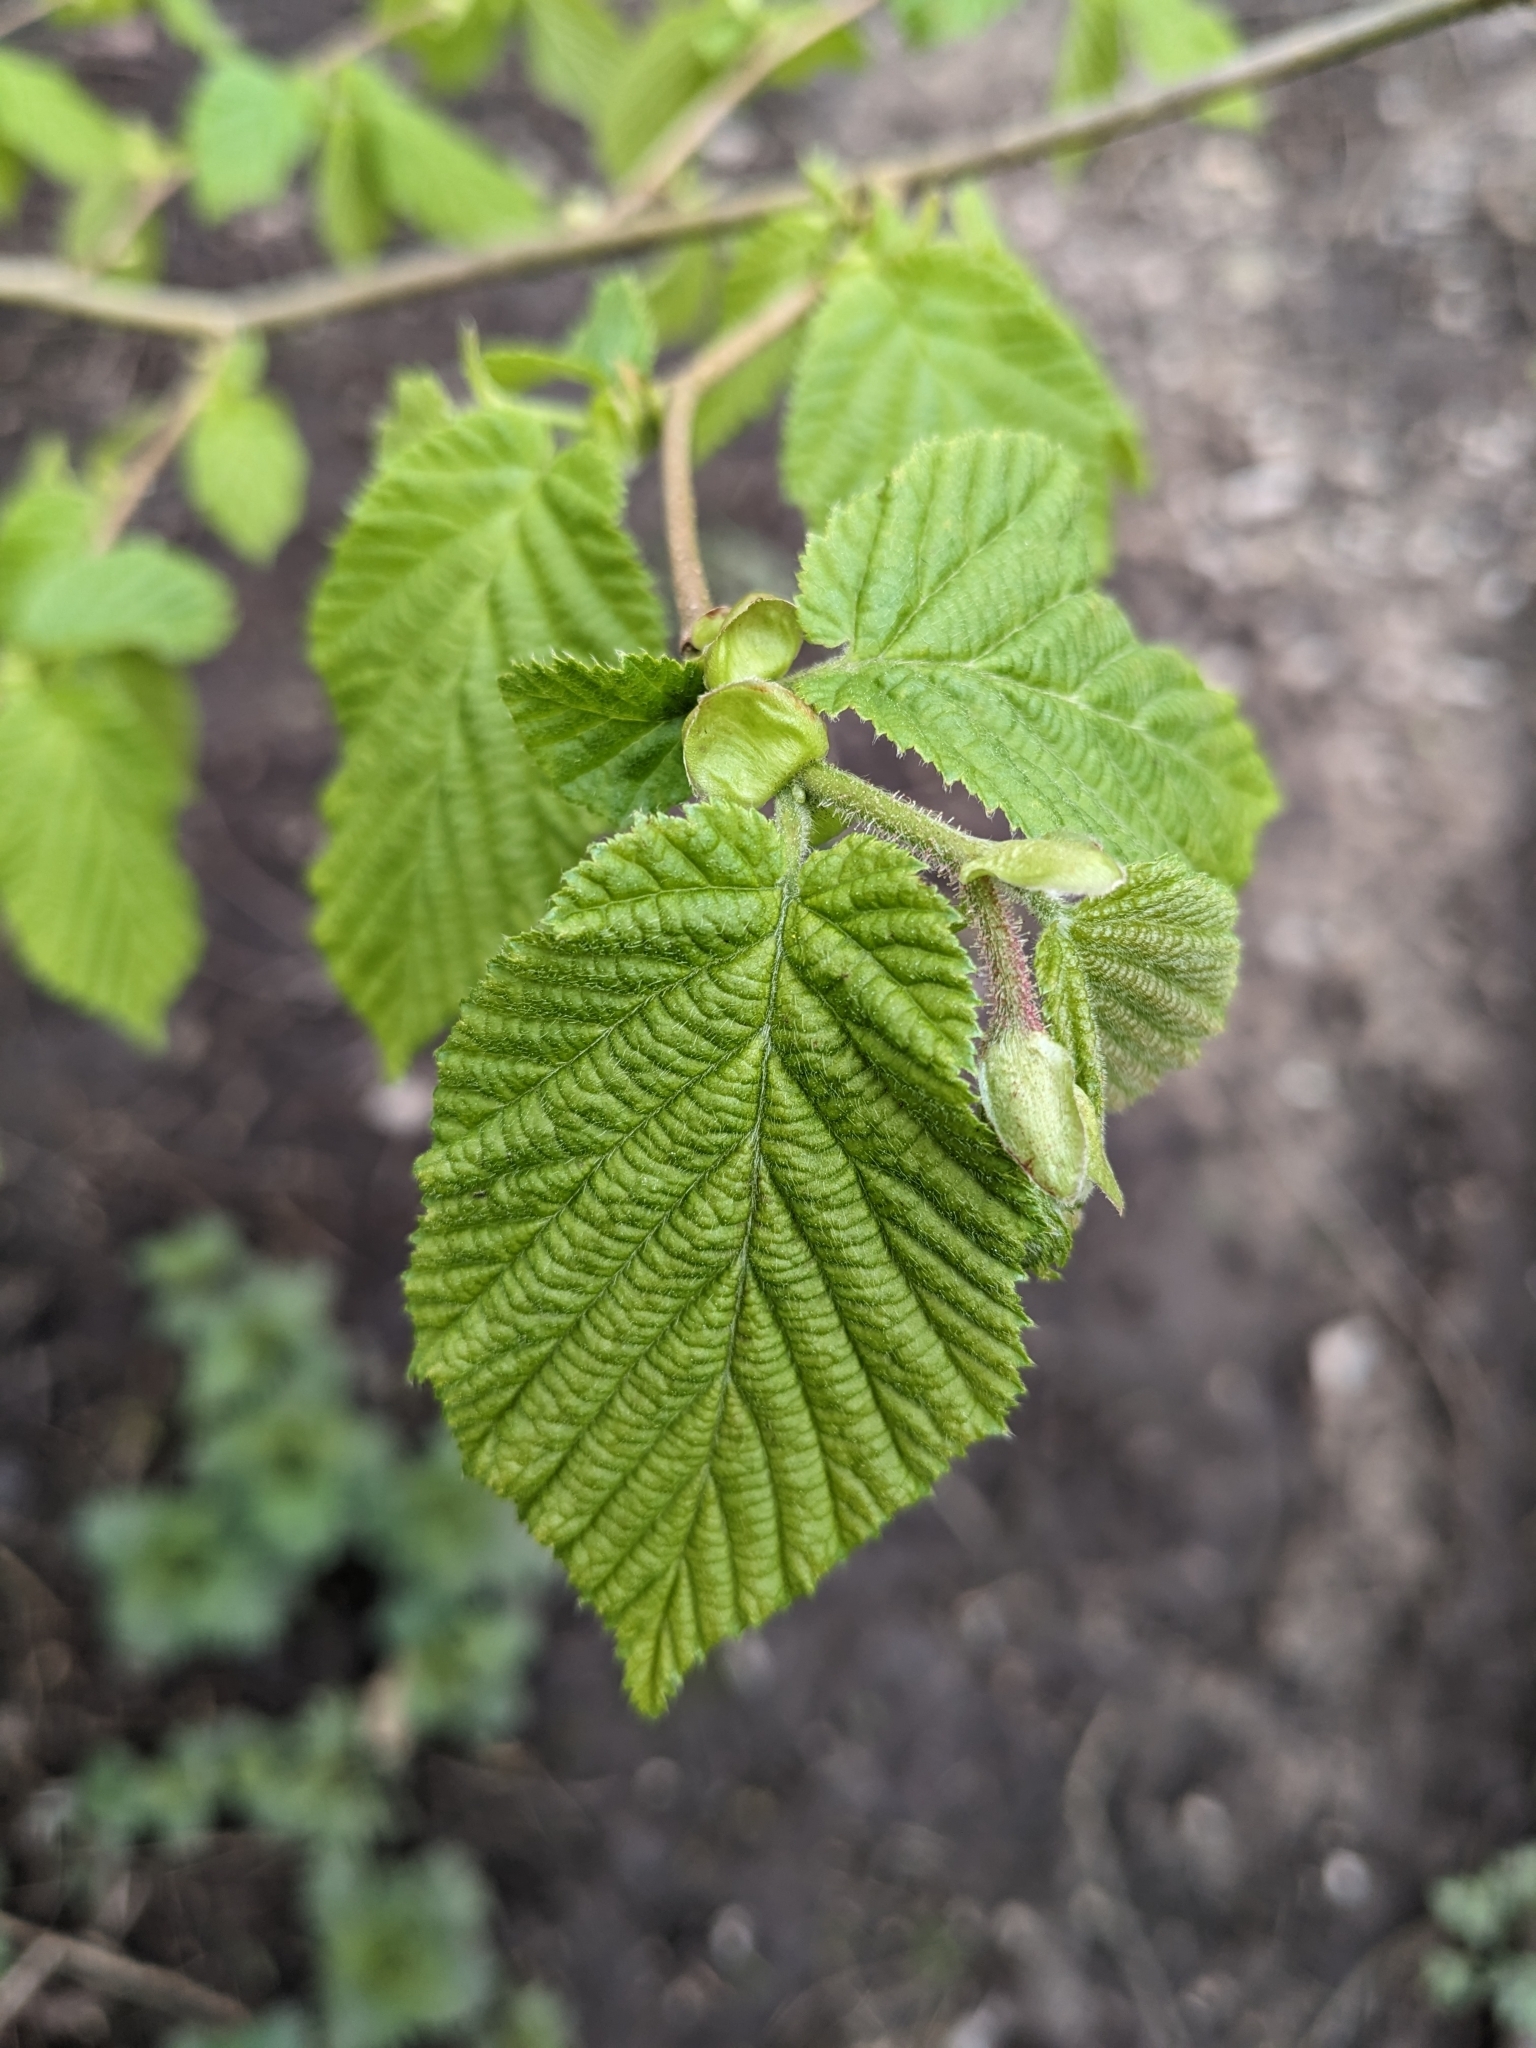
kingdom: Plantae
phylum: Tracheophyta
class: Magnoliopsida
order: Fagales
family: Betulaceae
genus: Corylus
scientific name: Corylus avellana
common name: European hazel
